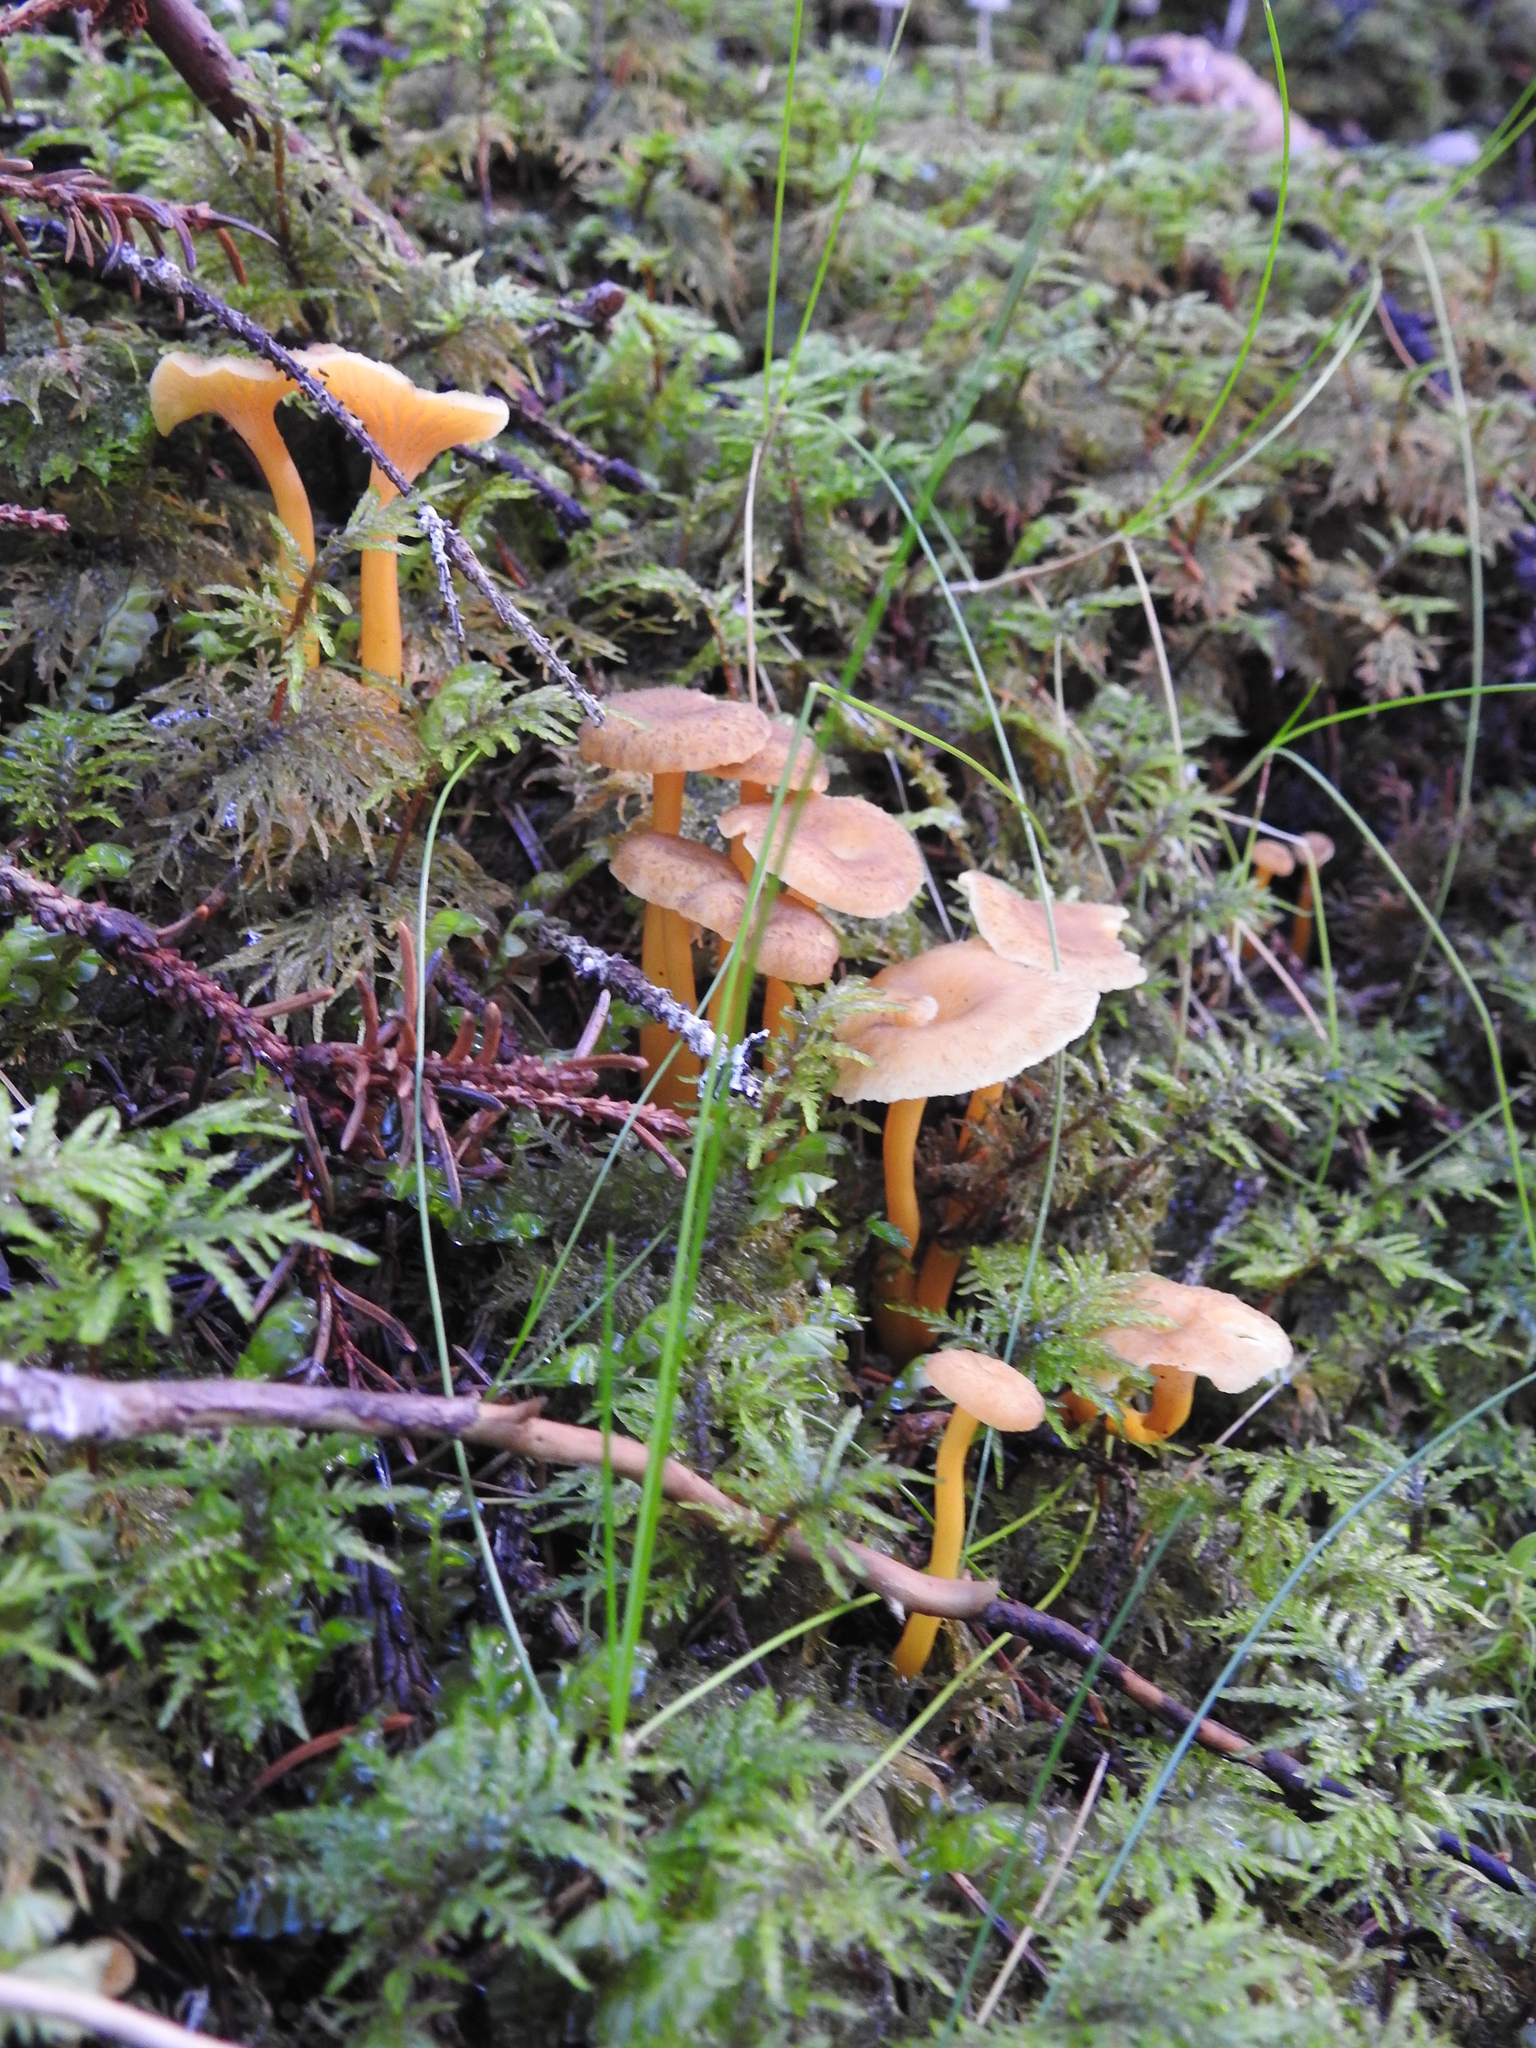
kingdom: Fungi
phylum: Basidiomycota
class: Agaricomycetes
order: Cantharellales
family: Hydnaceae
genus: Craterellus
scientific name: Craterellus tubaeformis
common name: Yellowfoot
